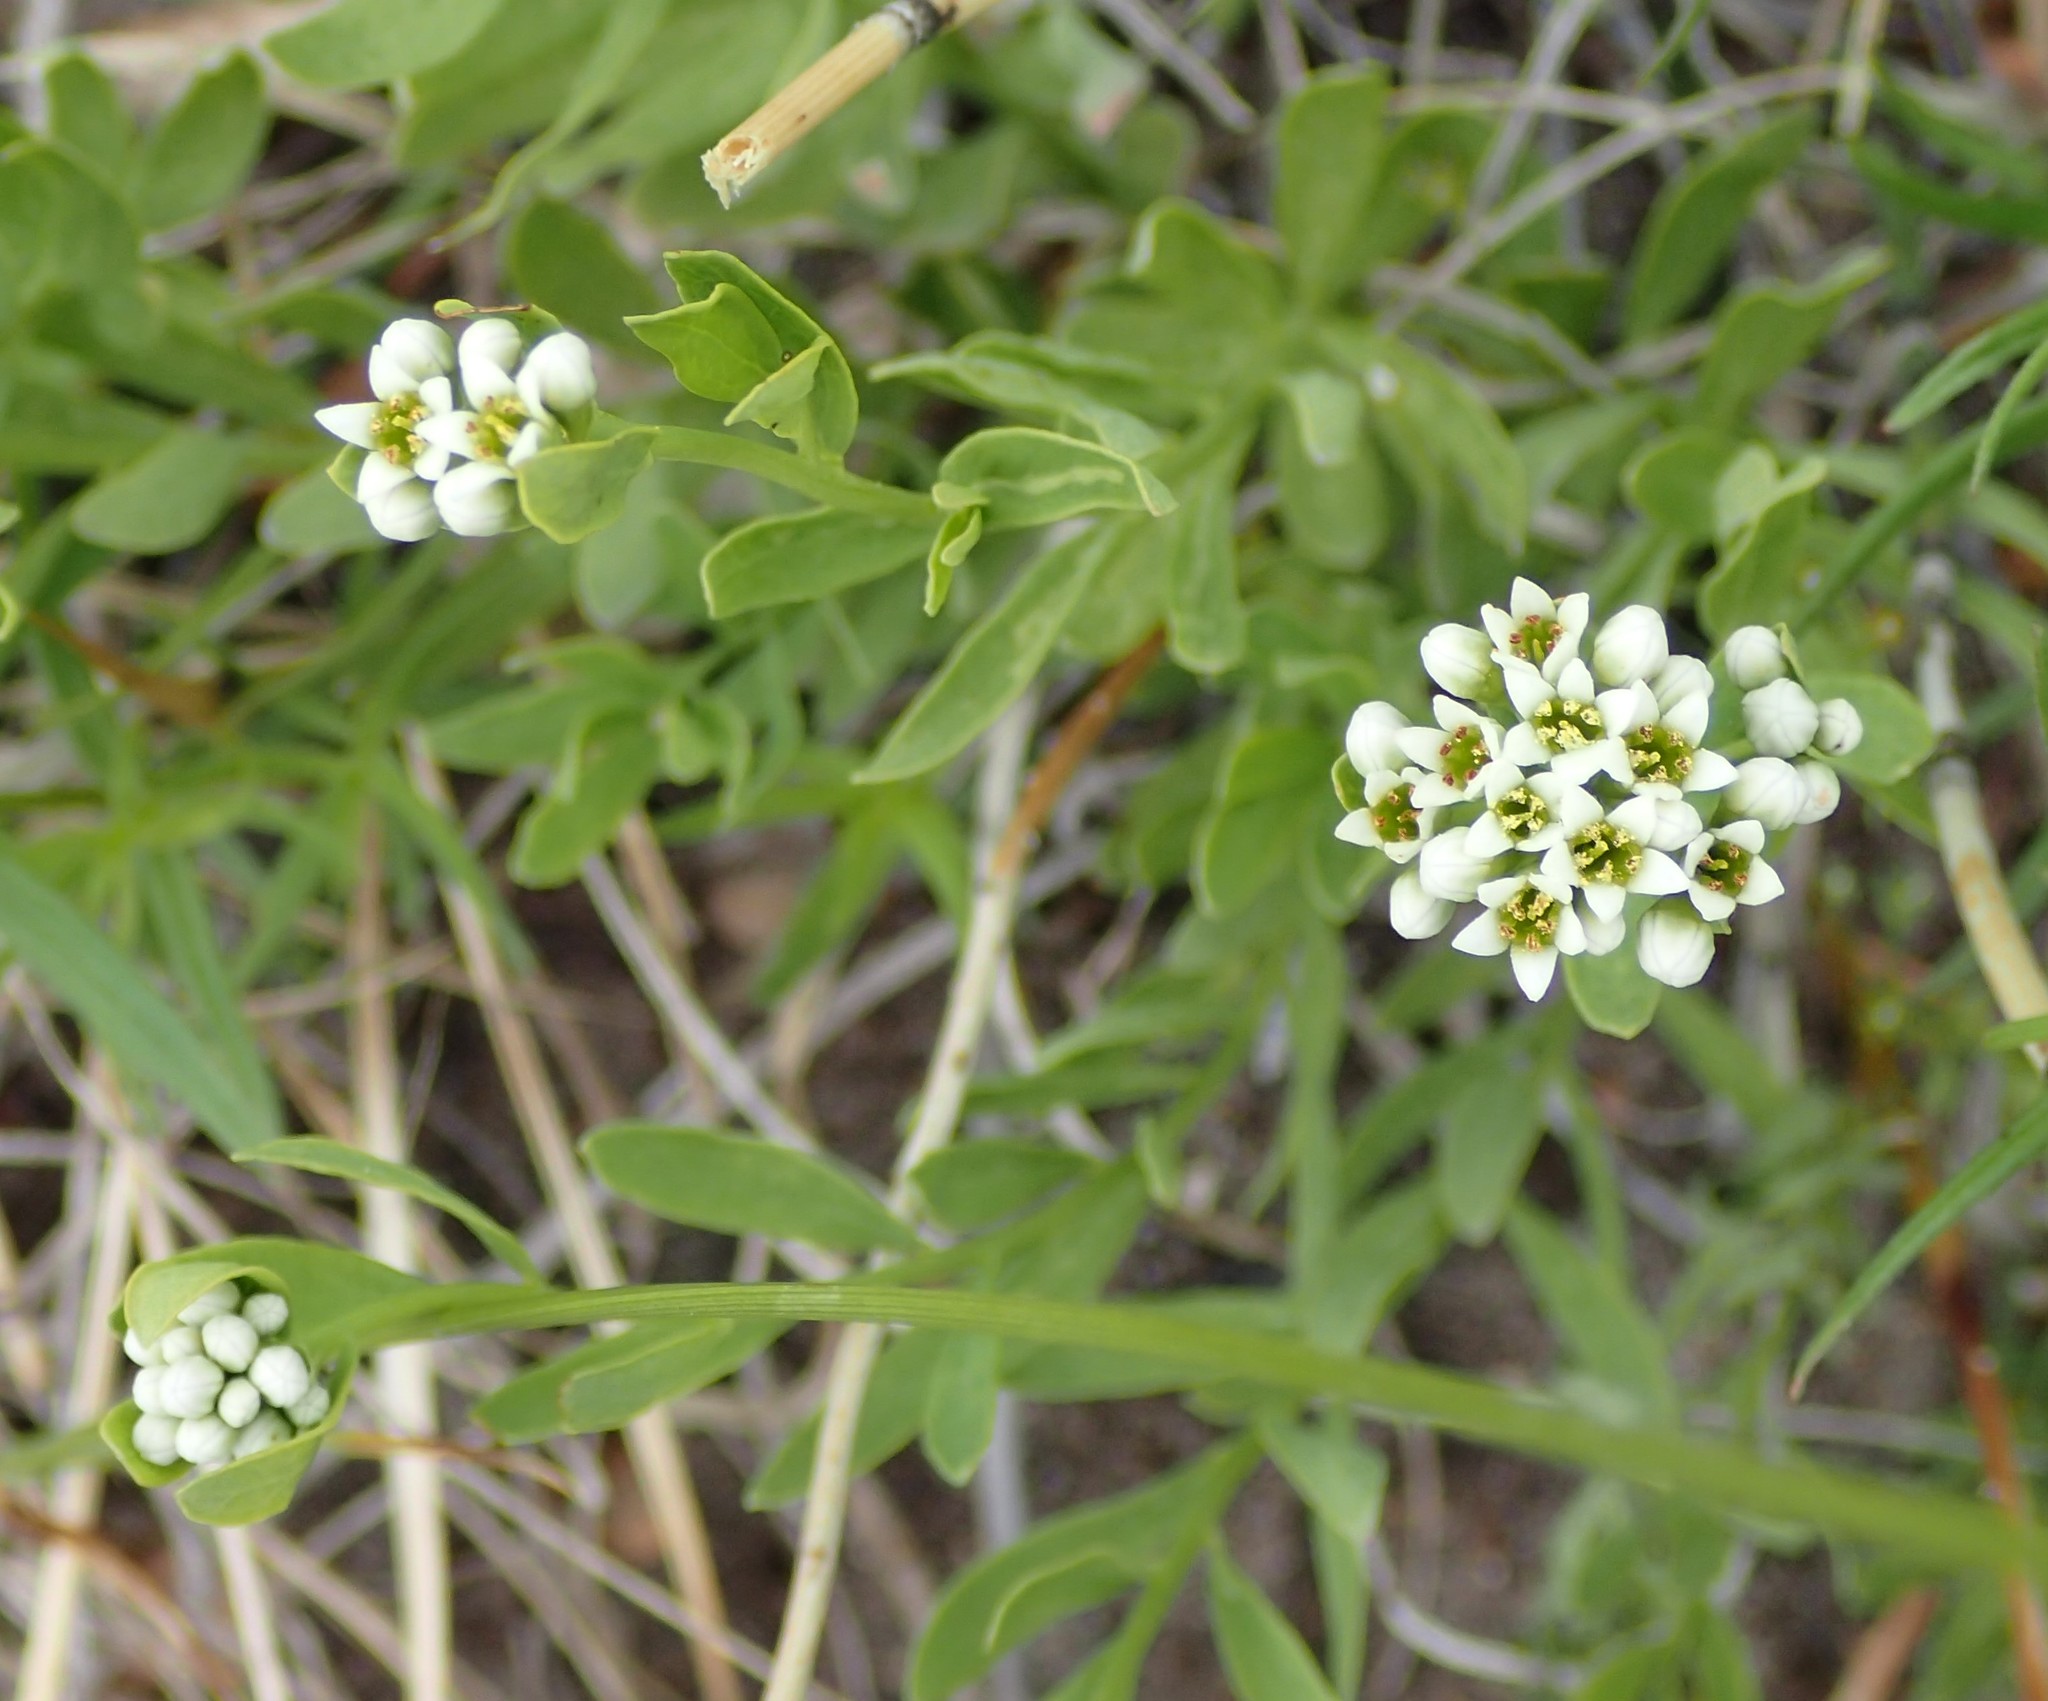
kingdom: Plantae
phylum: Tracheophyta
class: Magnoliopsida
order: Santalales
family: Comandraceae
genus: Comandra
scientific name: Comandra umbellata
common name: Bastard toadflax
